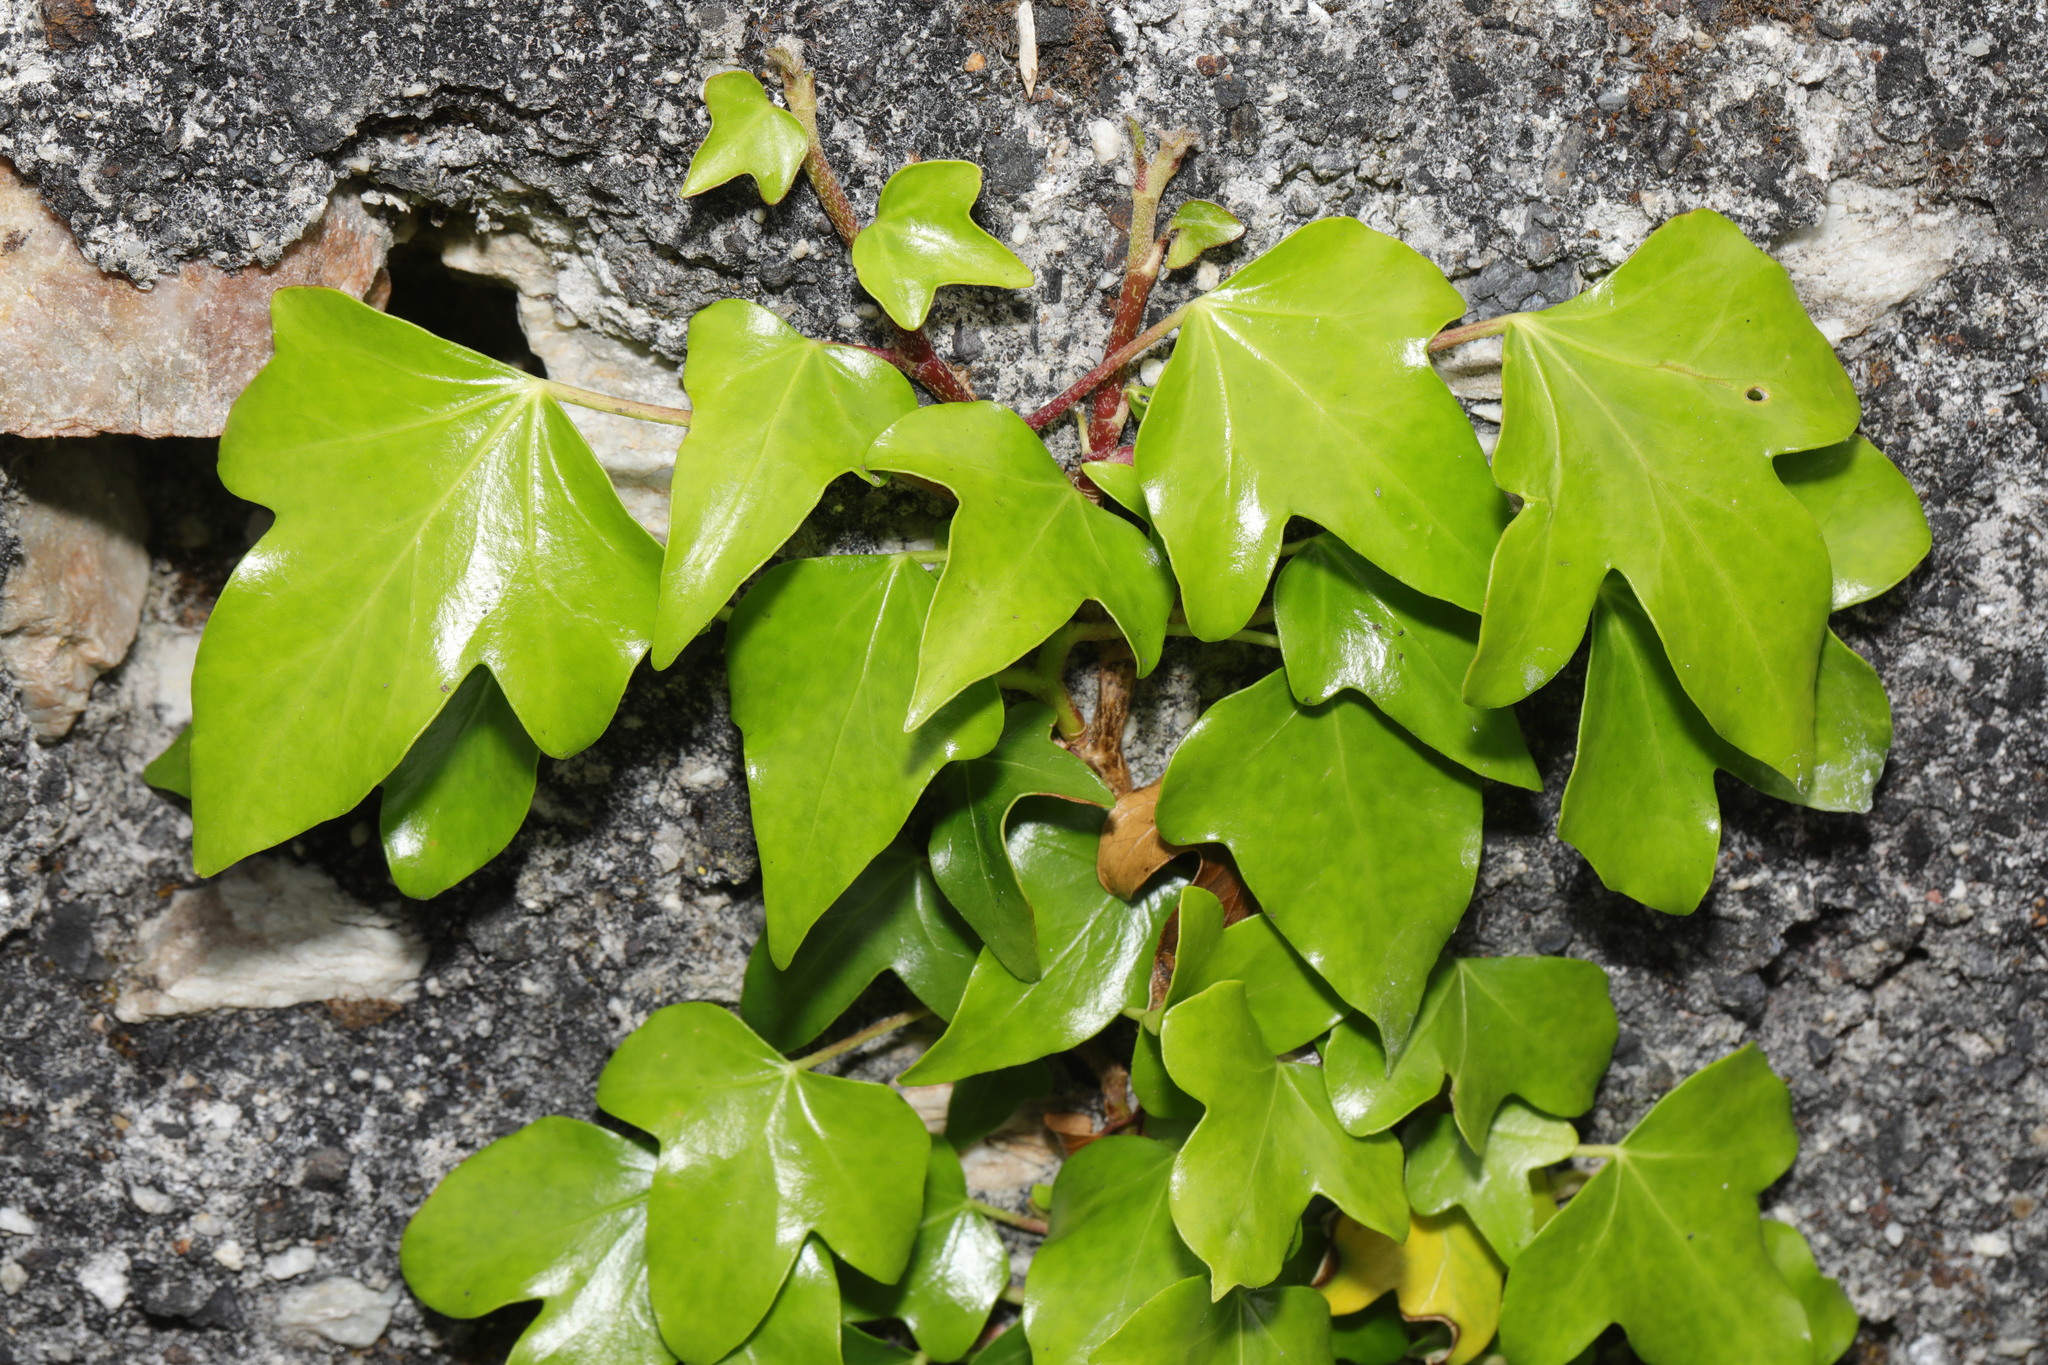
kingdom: Plantae
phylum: Tracheophyta
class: Magnoliopsida
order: Apiales
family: Araliaceae
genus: Hedera
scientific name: Hedera helix
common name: Ivy
